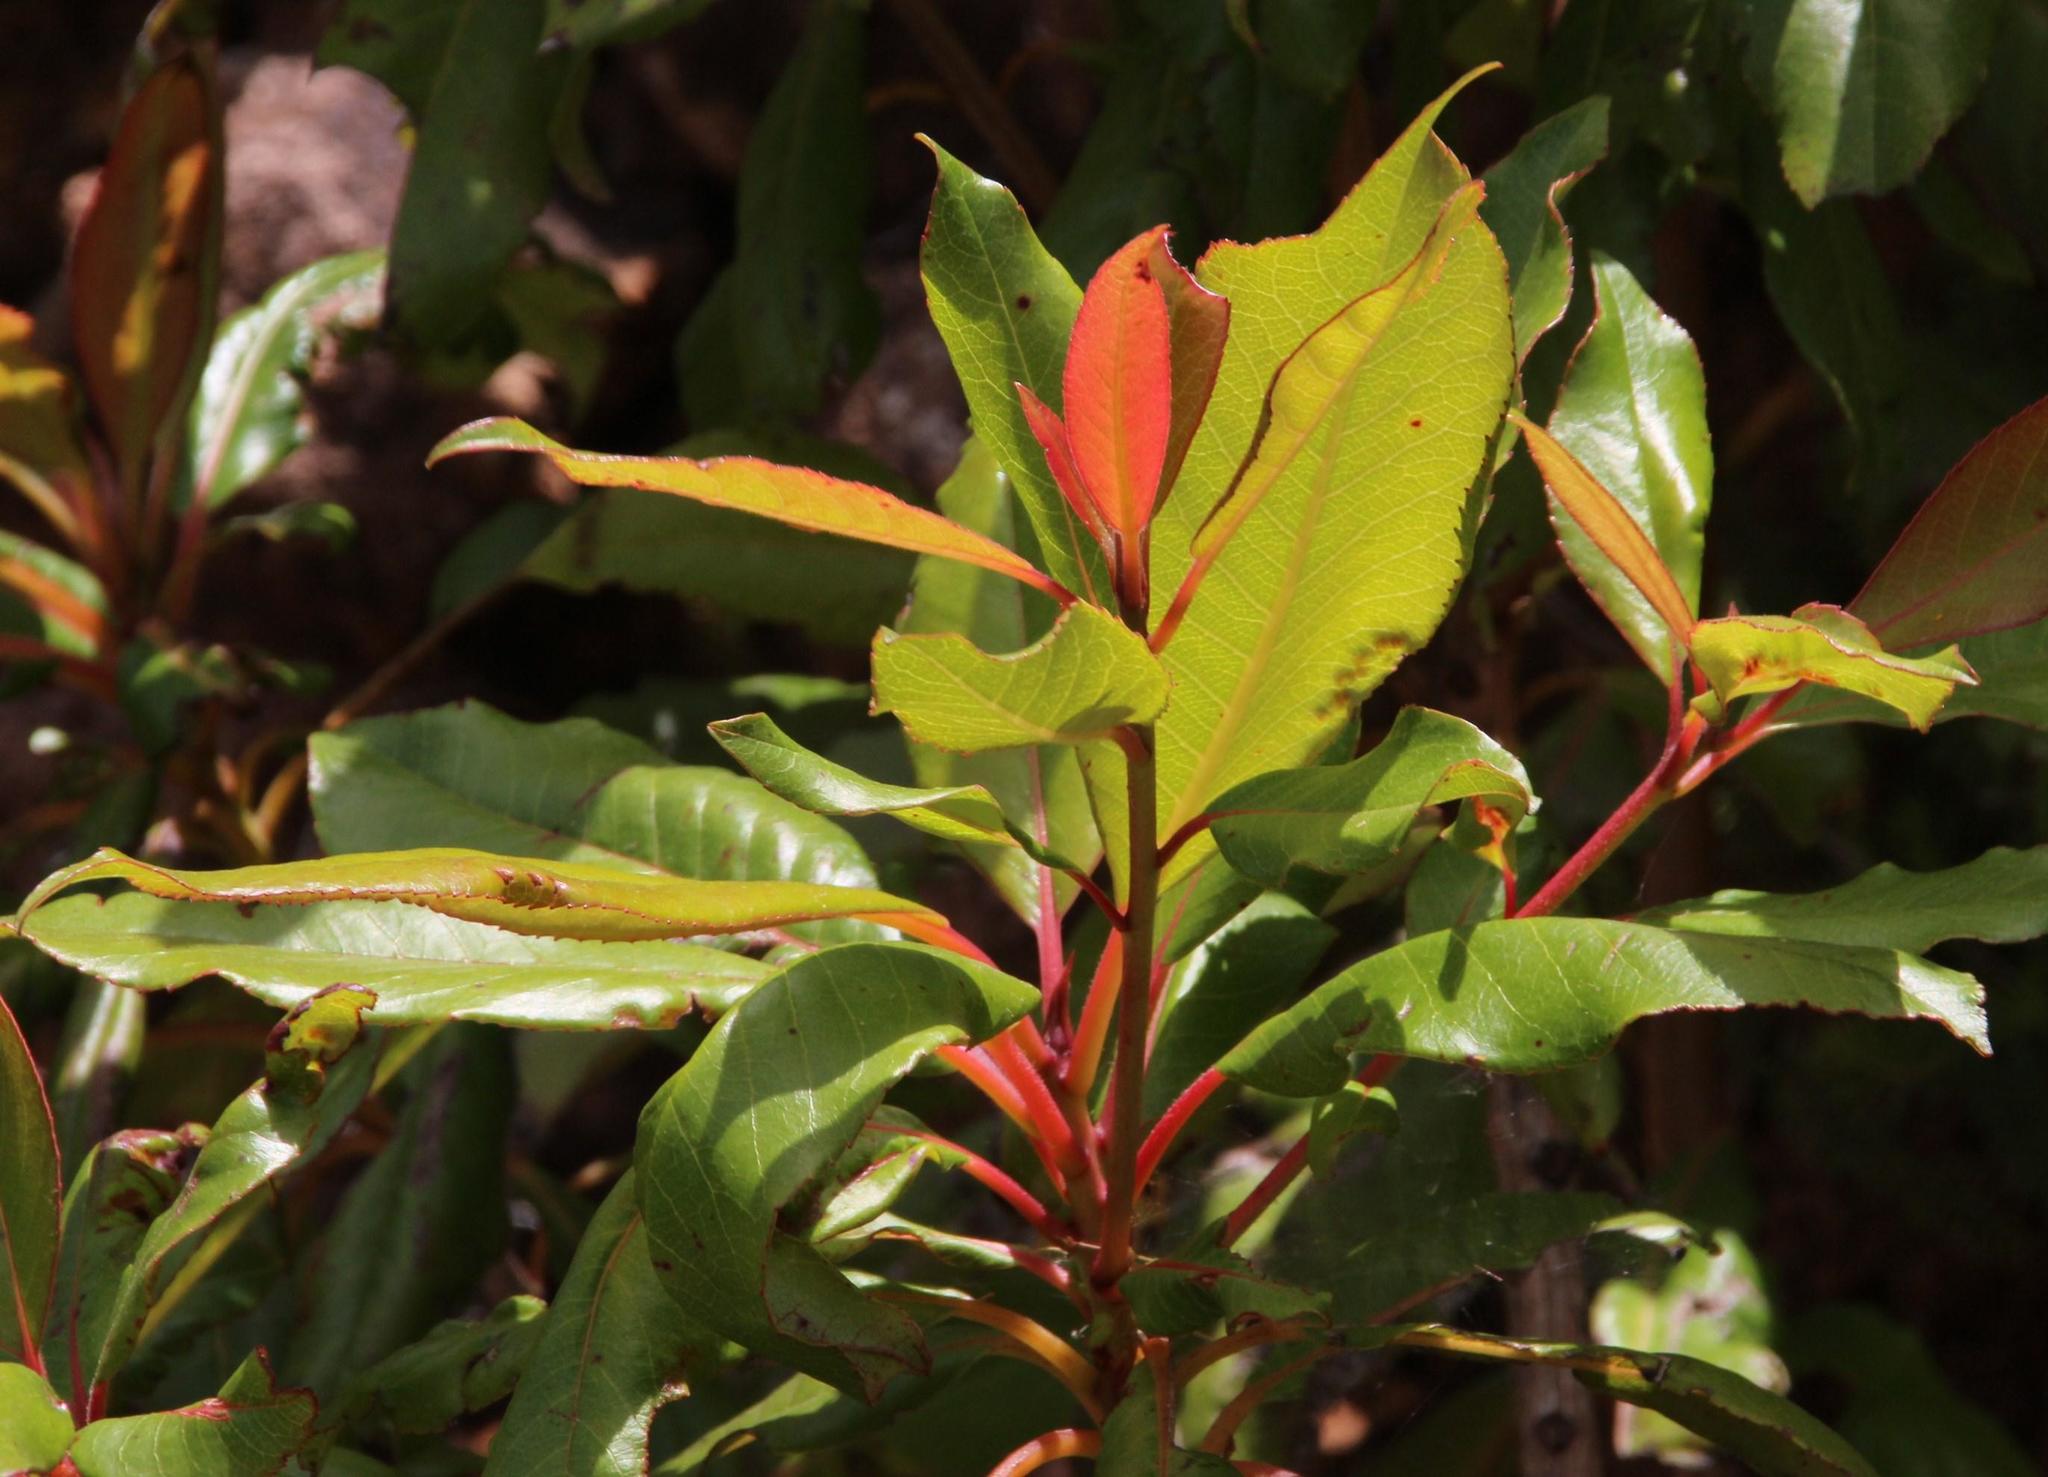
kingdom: Plantae
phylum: Tracheophyta
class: Magnoliopsida
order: Ericales
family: Clethraceae
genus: Clethra
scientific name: Clethra arborea
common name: Lily-of-the-valley-tree
